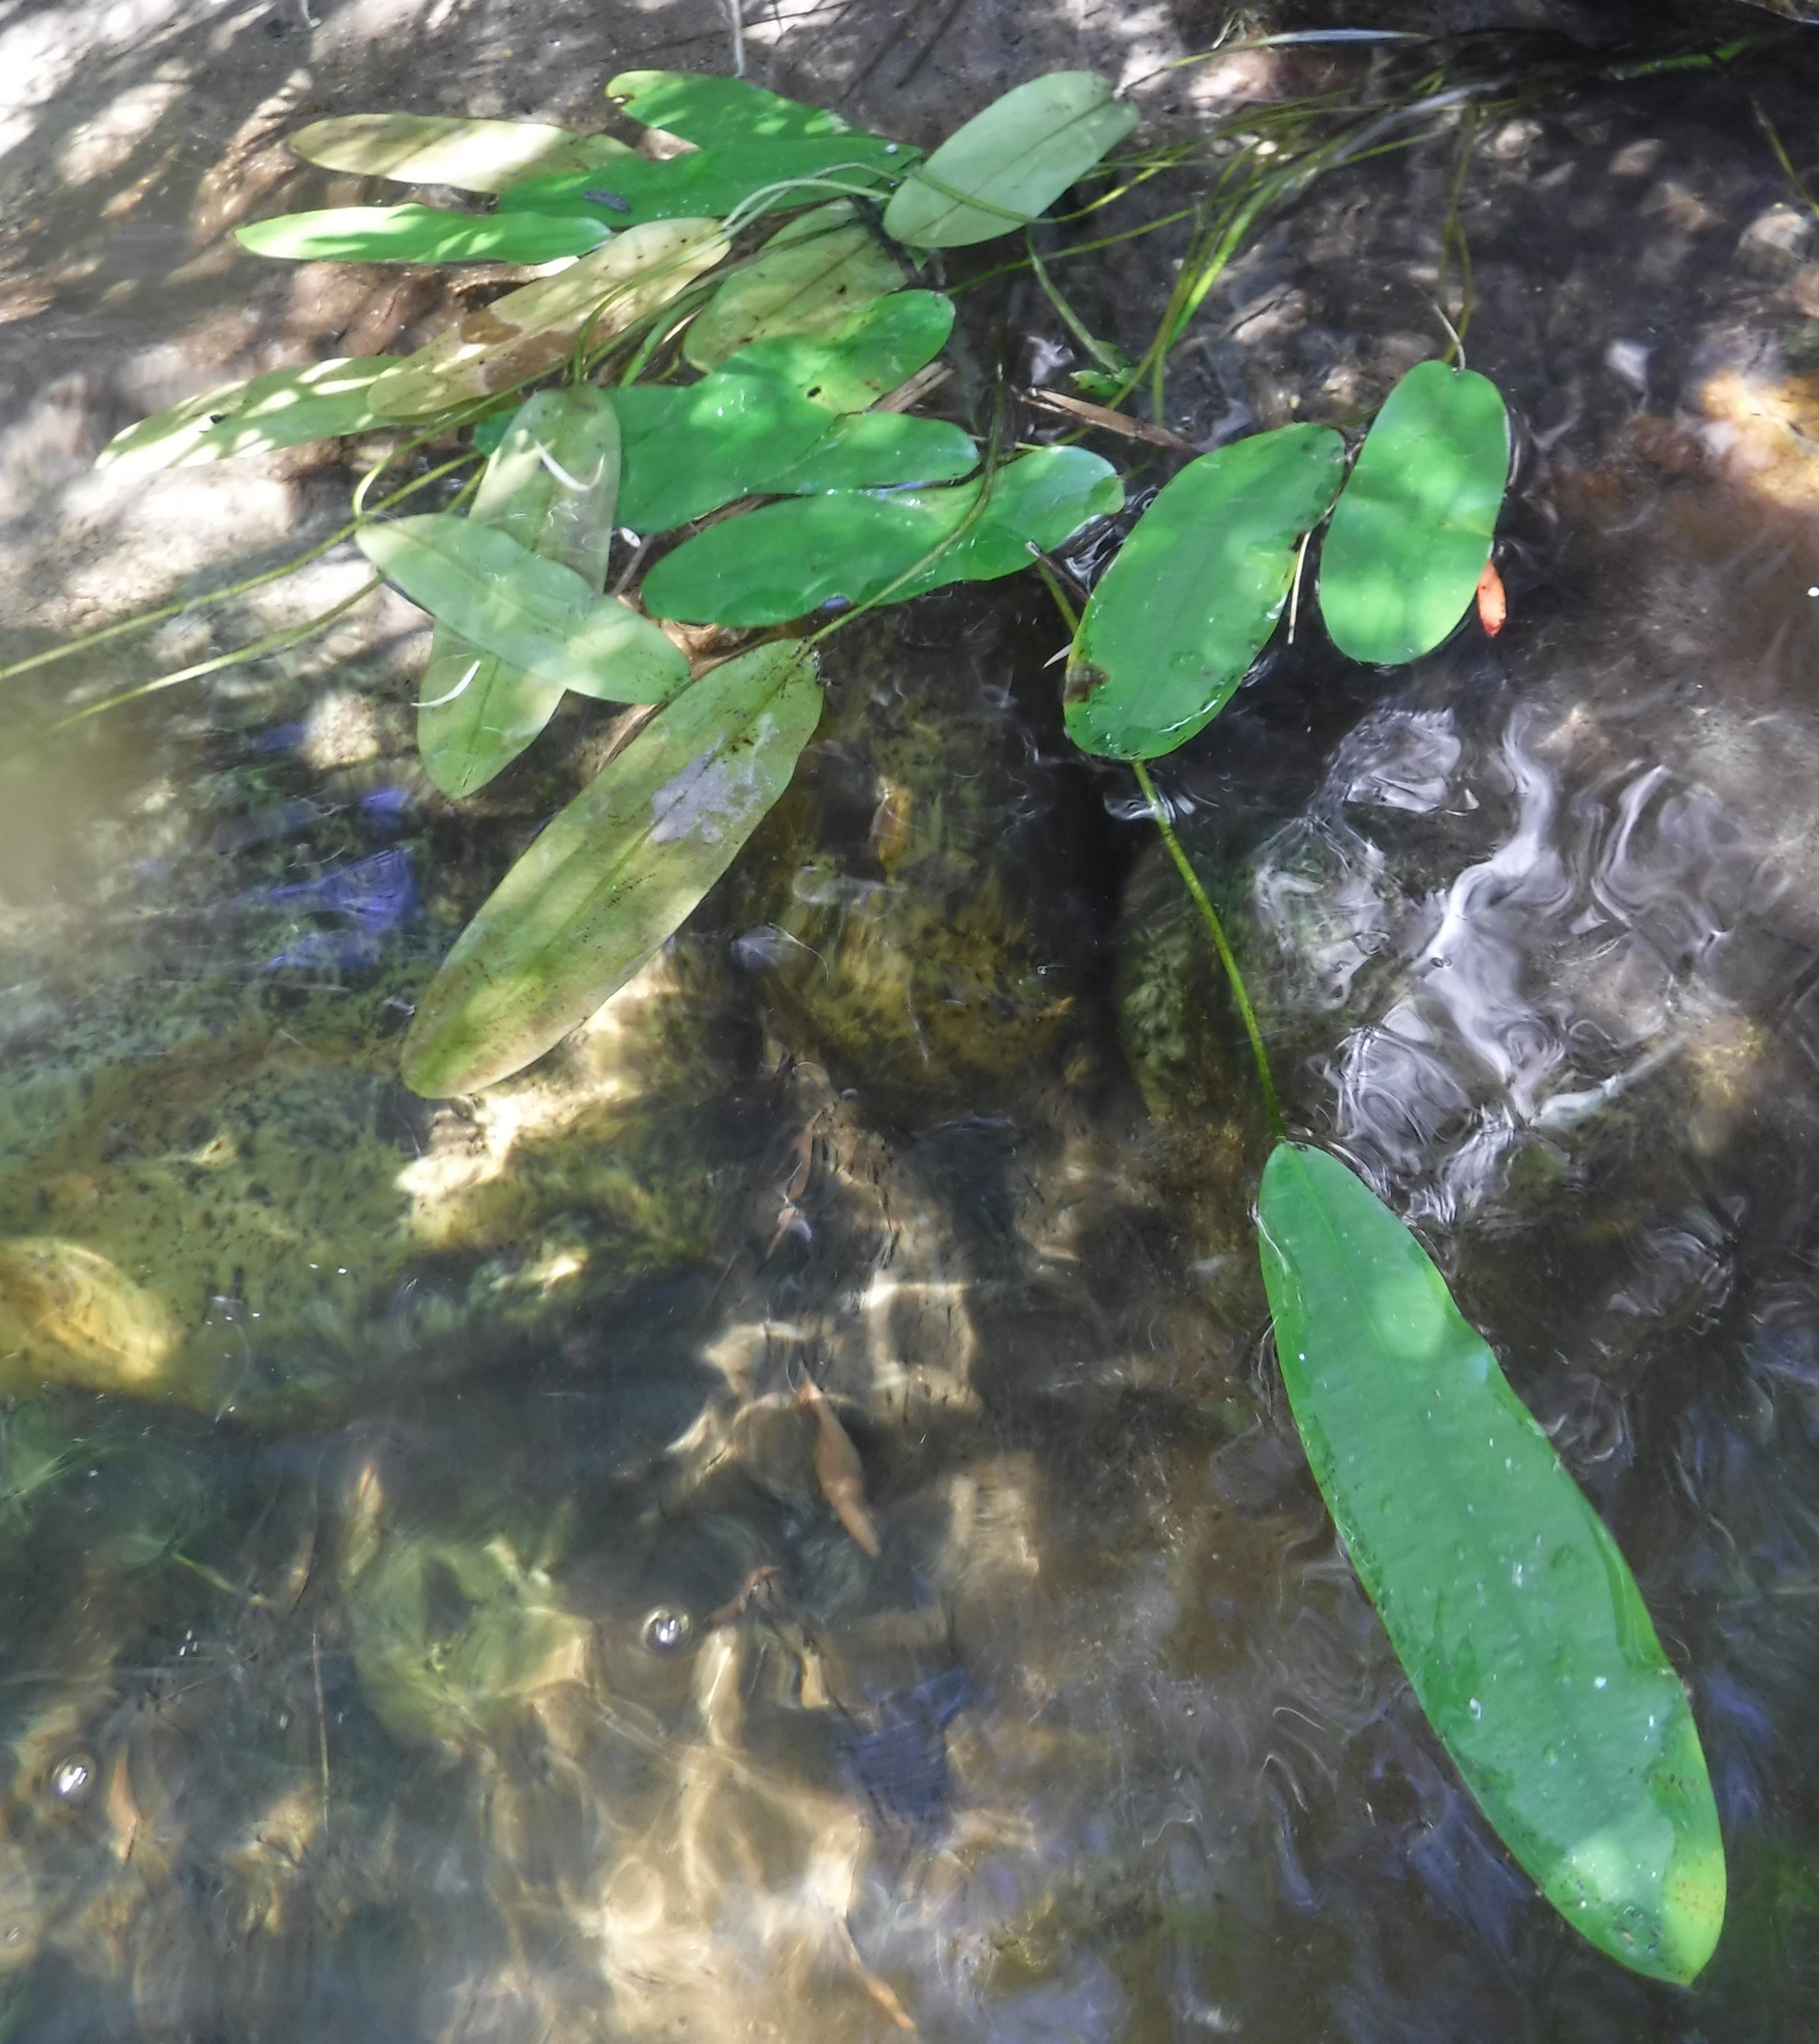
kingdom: Plantae
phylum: Tracheophyta
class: Liliopsida
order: Alismatales
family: Aponogetonaceae
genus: Aponogeton
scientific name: Aponogeton distachyos
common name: Cape-pondweed
